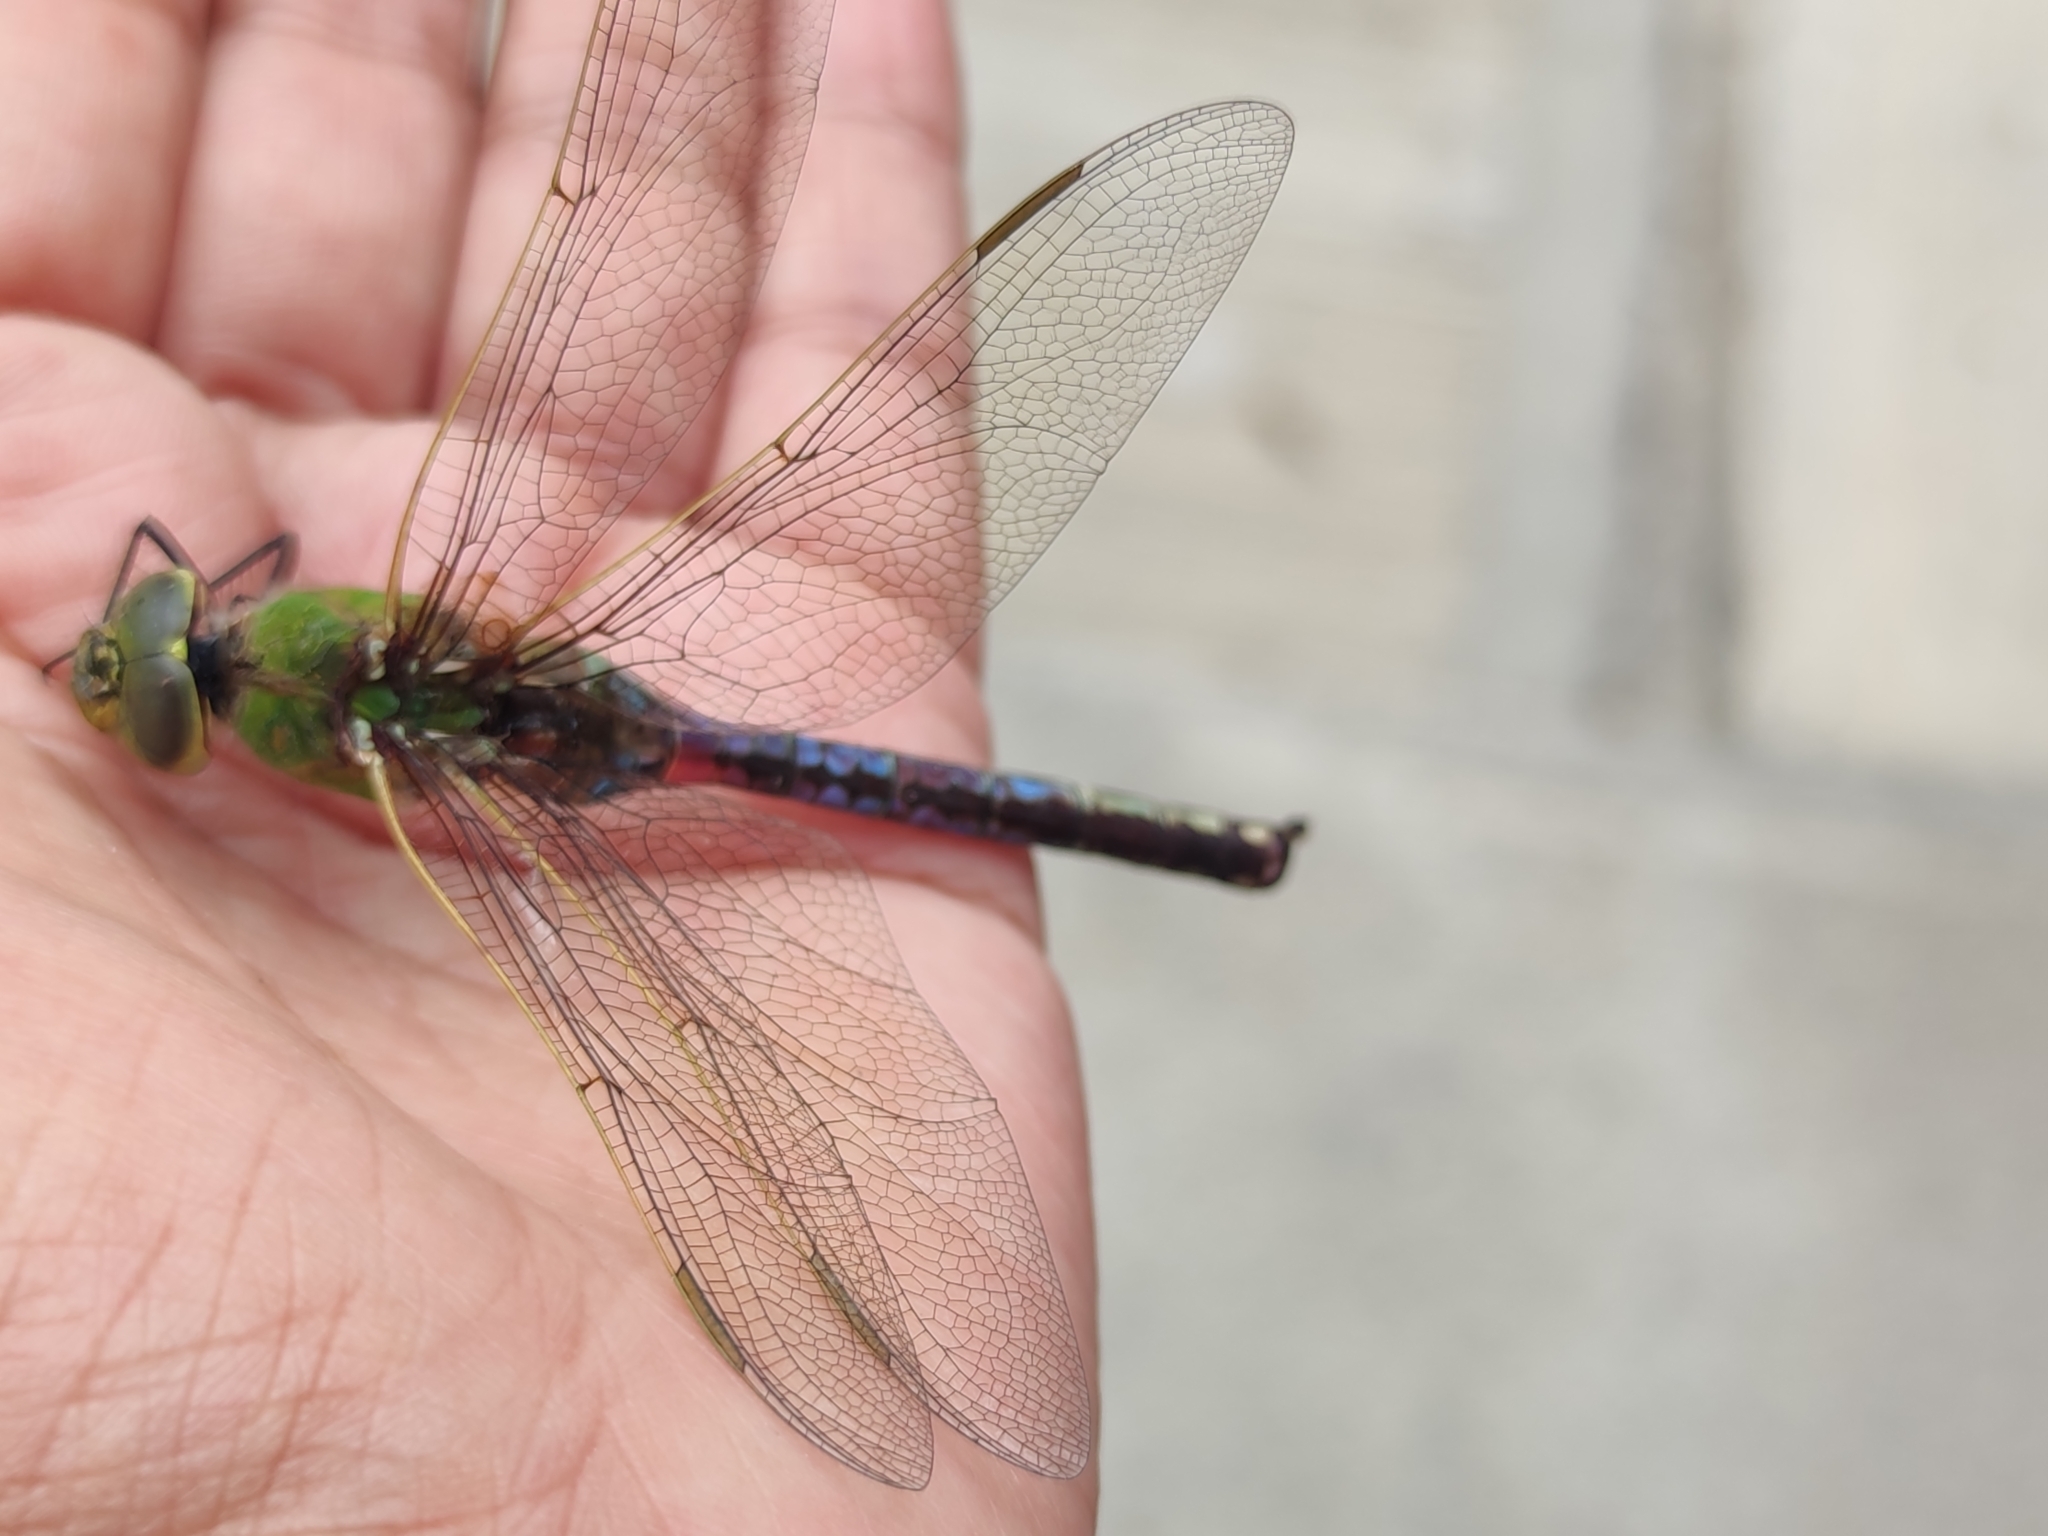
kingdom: Animalia
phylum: Arthropoda
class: Insecta
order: Odonata
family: Aeshnidae
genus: Anax
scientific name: Anax junius
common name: Common green darner
